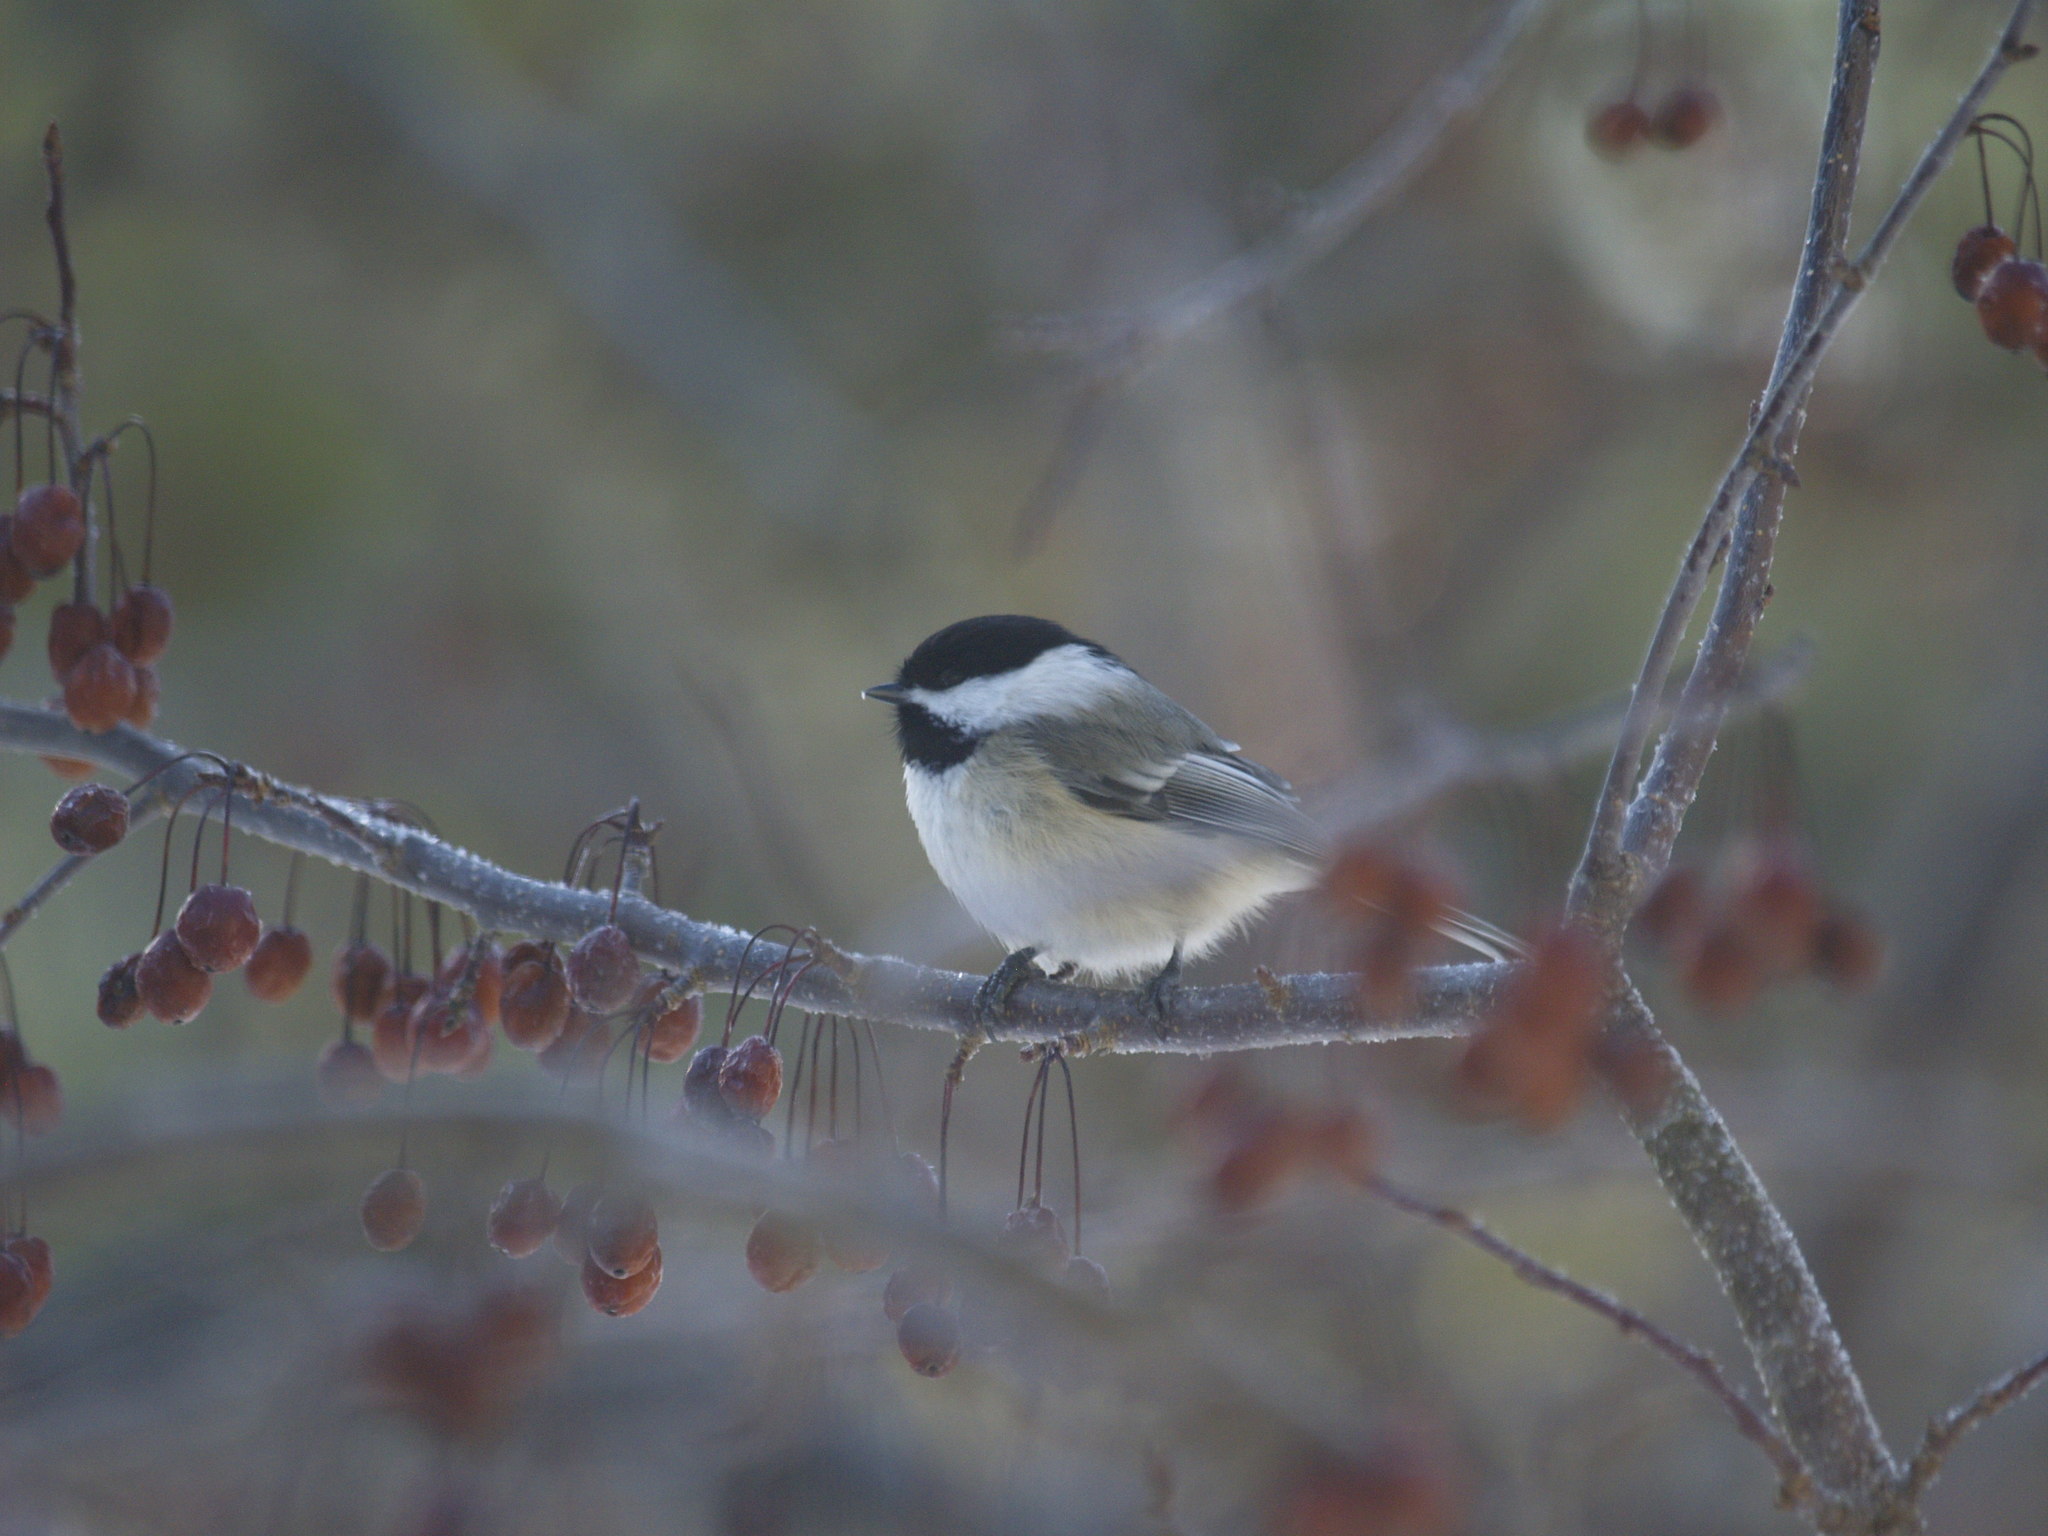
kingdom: Animalia
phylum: Chordata
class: Aves
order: Passeriformes
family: Paridae
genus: Poecile
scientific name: Poecile atricapillus
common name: Black-capped chickadee
